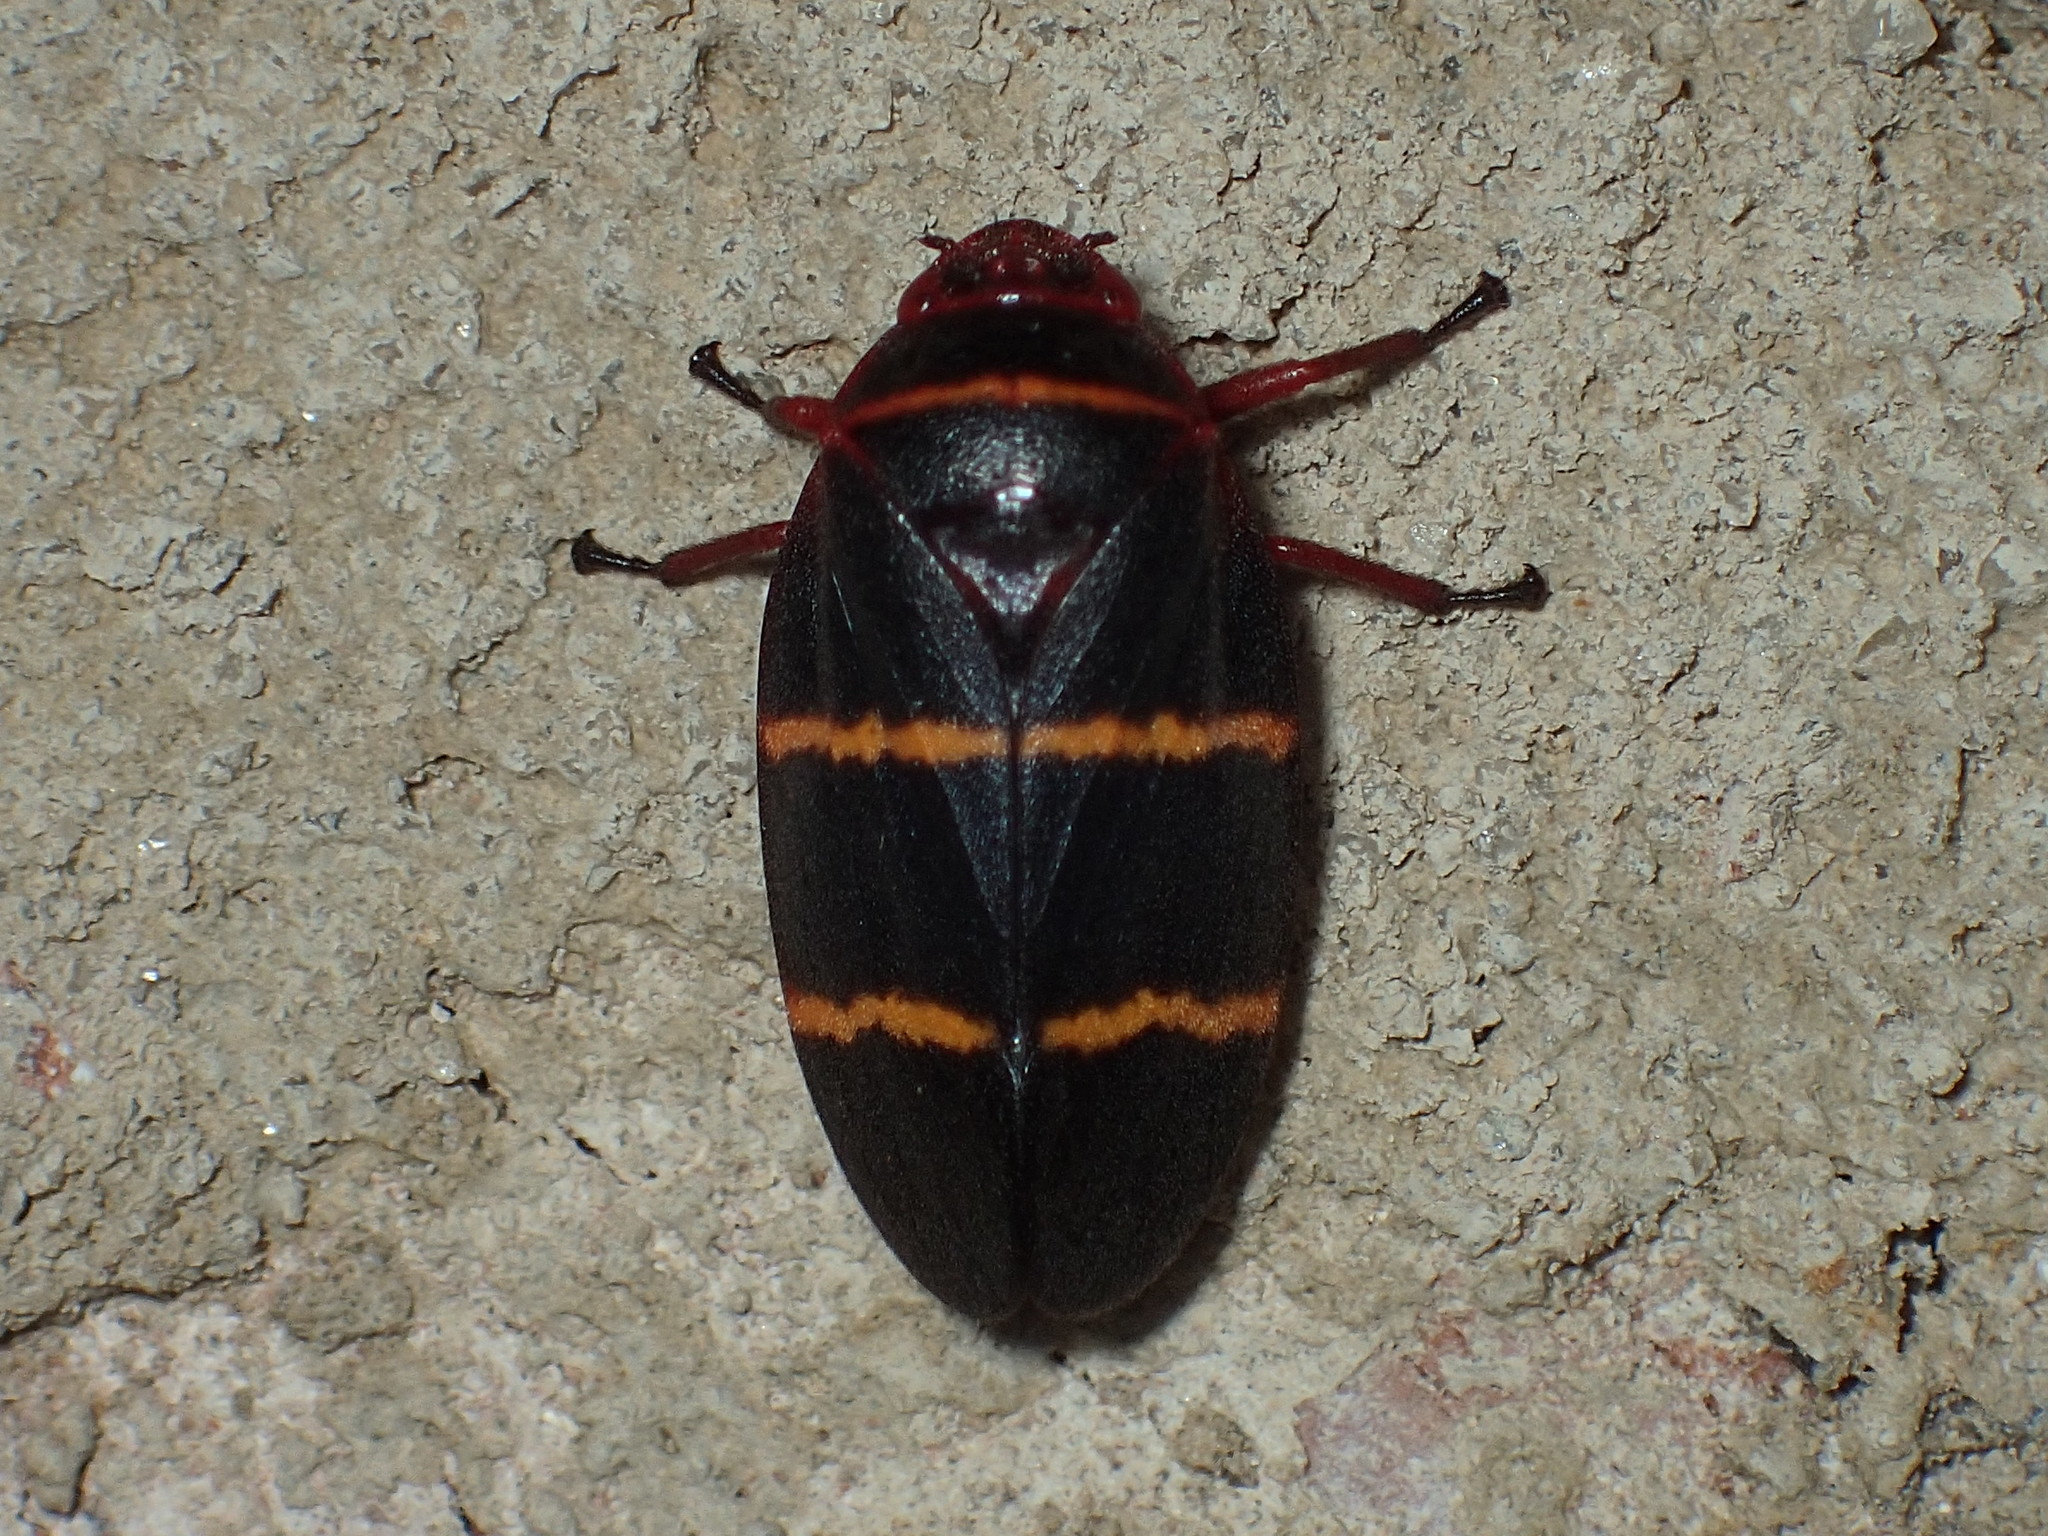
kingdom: Animalia
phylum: Arthropoda
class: Insecta
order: Hemiptera
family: Cercopidae
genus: Prosapia
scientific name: Prosapia bicincta
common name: Twolined spittlebug
